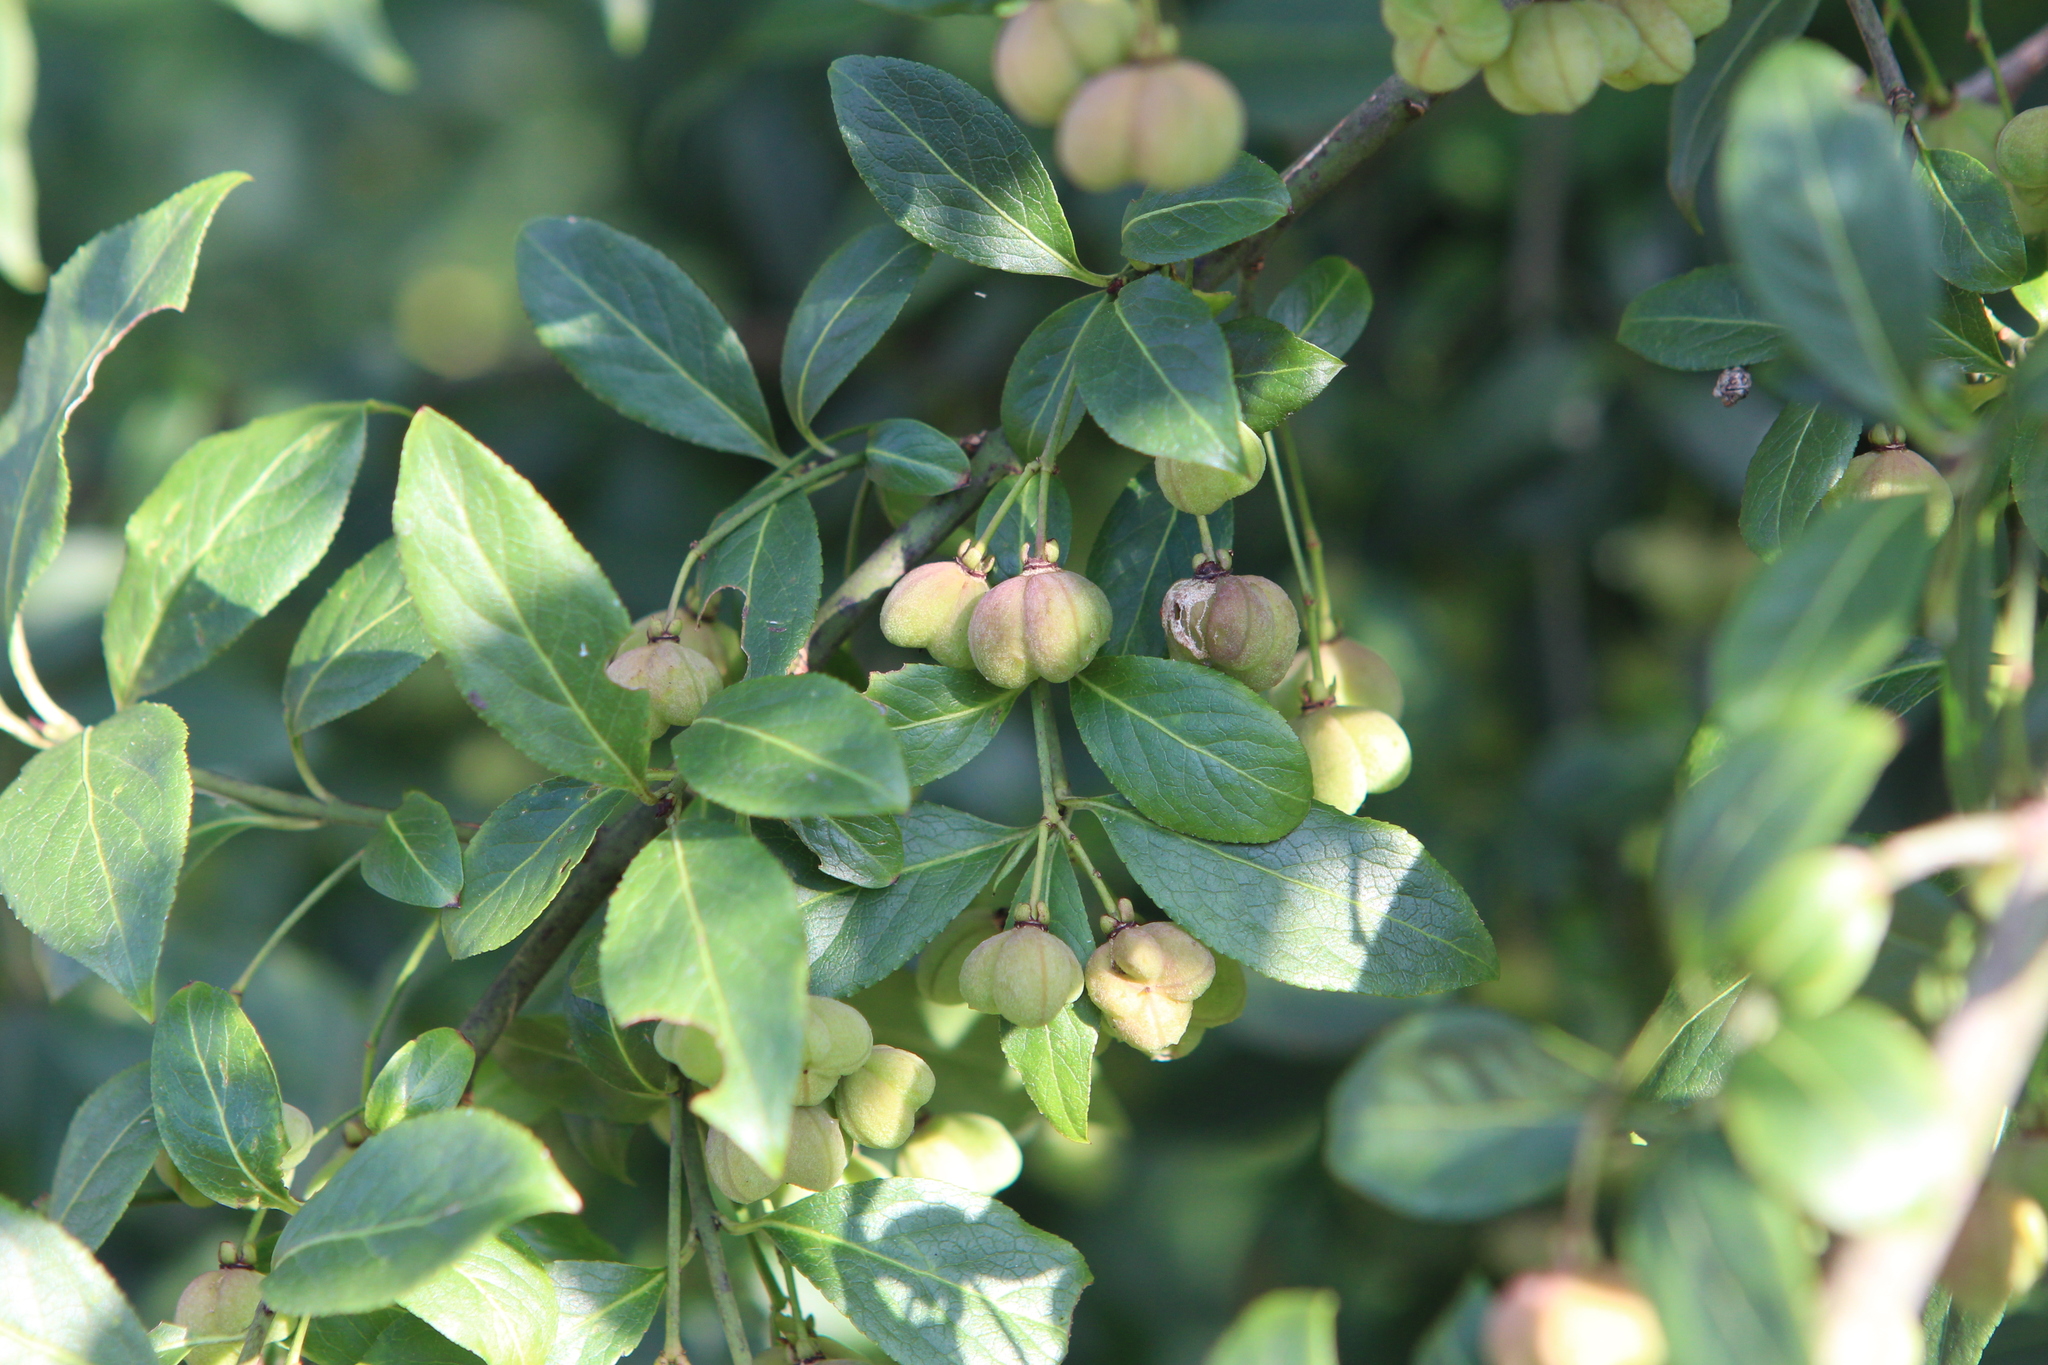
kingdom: Plantae
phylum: Tracheophyta
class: Magnoliopsida
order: Celastrales
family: Celastraceae
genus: Euonymus
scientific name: Euonymus europaeus
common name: Spindle
